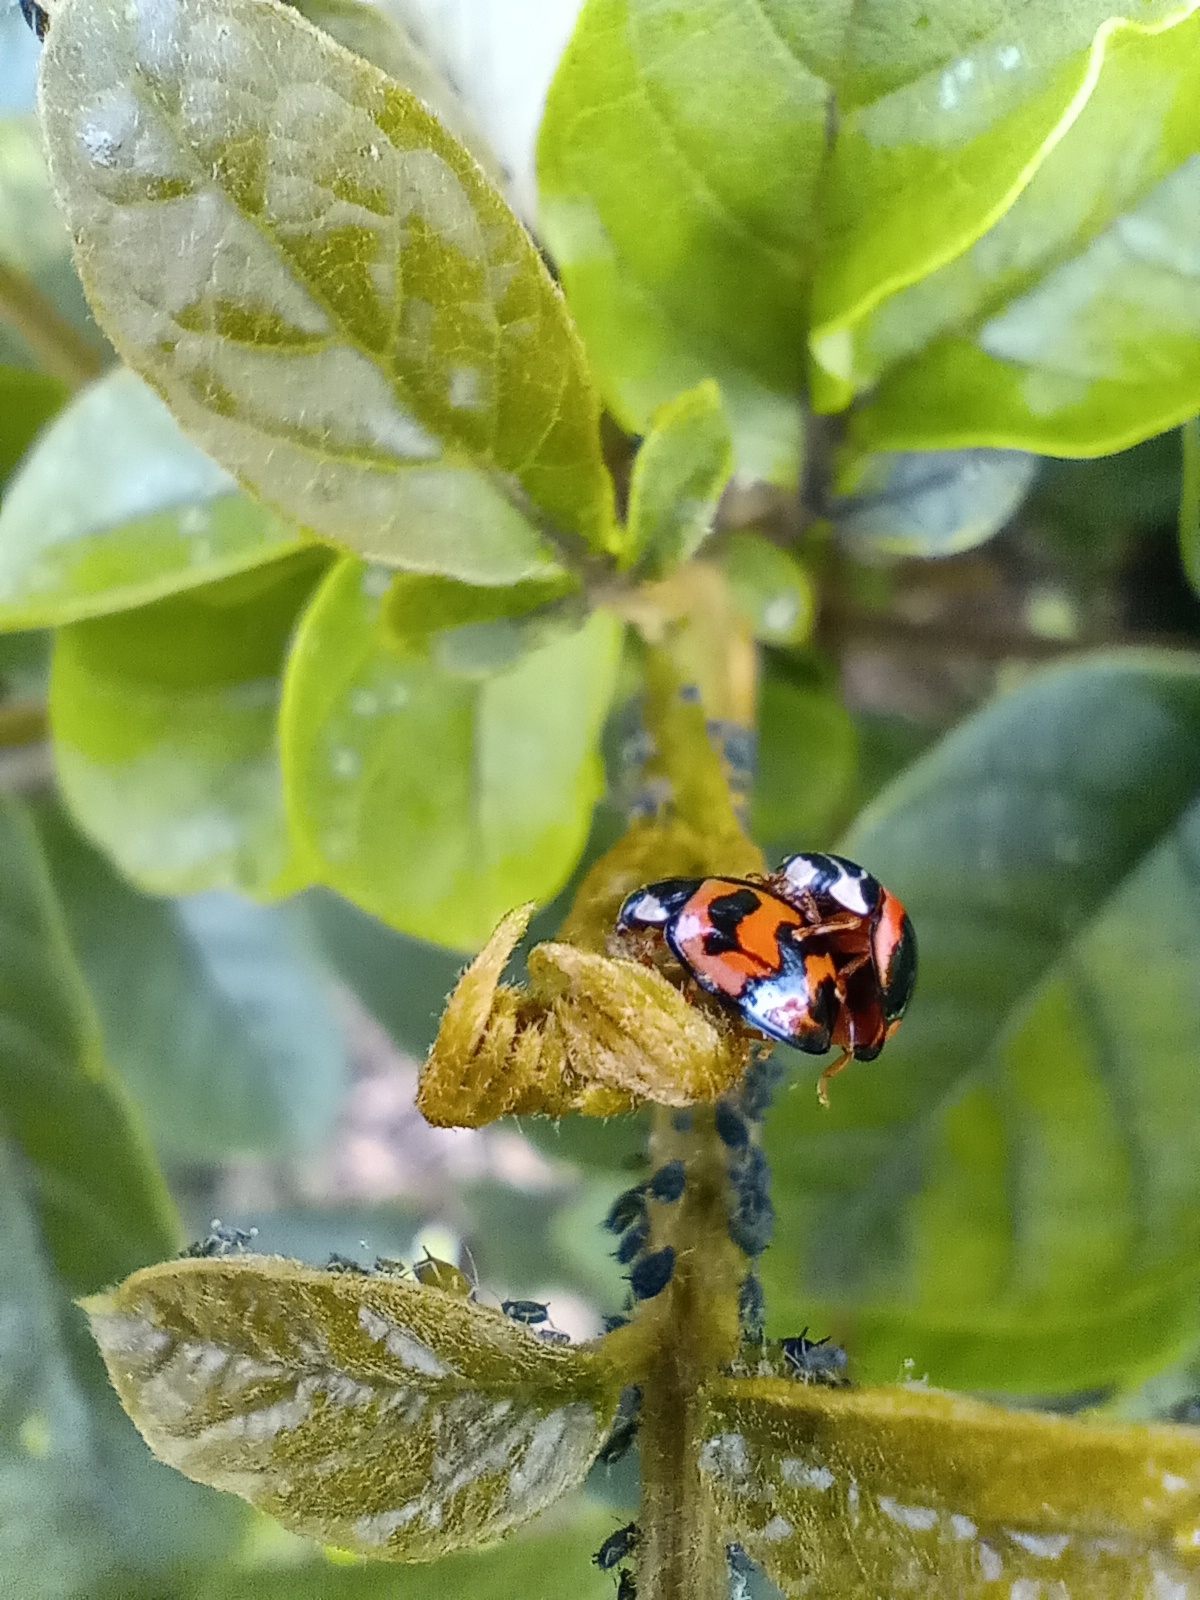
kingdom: Animalia
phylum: Arthropoda
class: Insecta
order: Coleoptera
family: Coccinellidae
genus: Cheilomenes
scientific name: Cheilomenes sexmaculata
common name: Ladybird beetle
